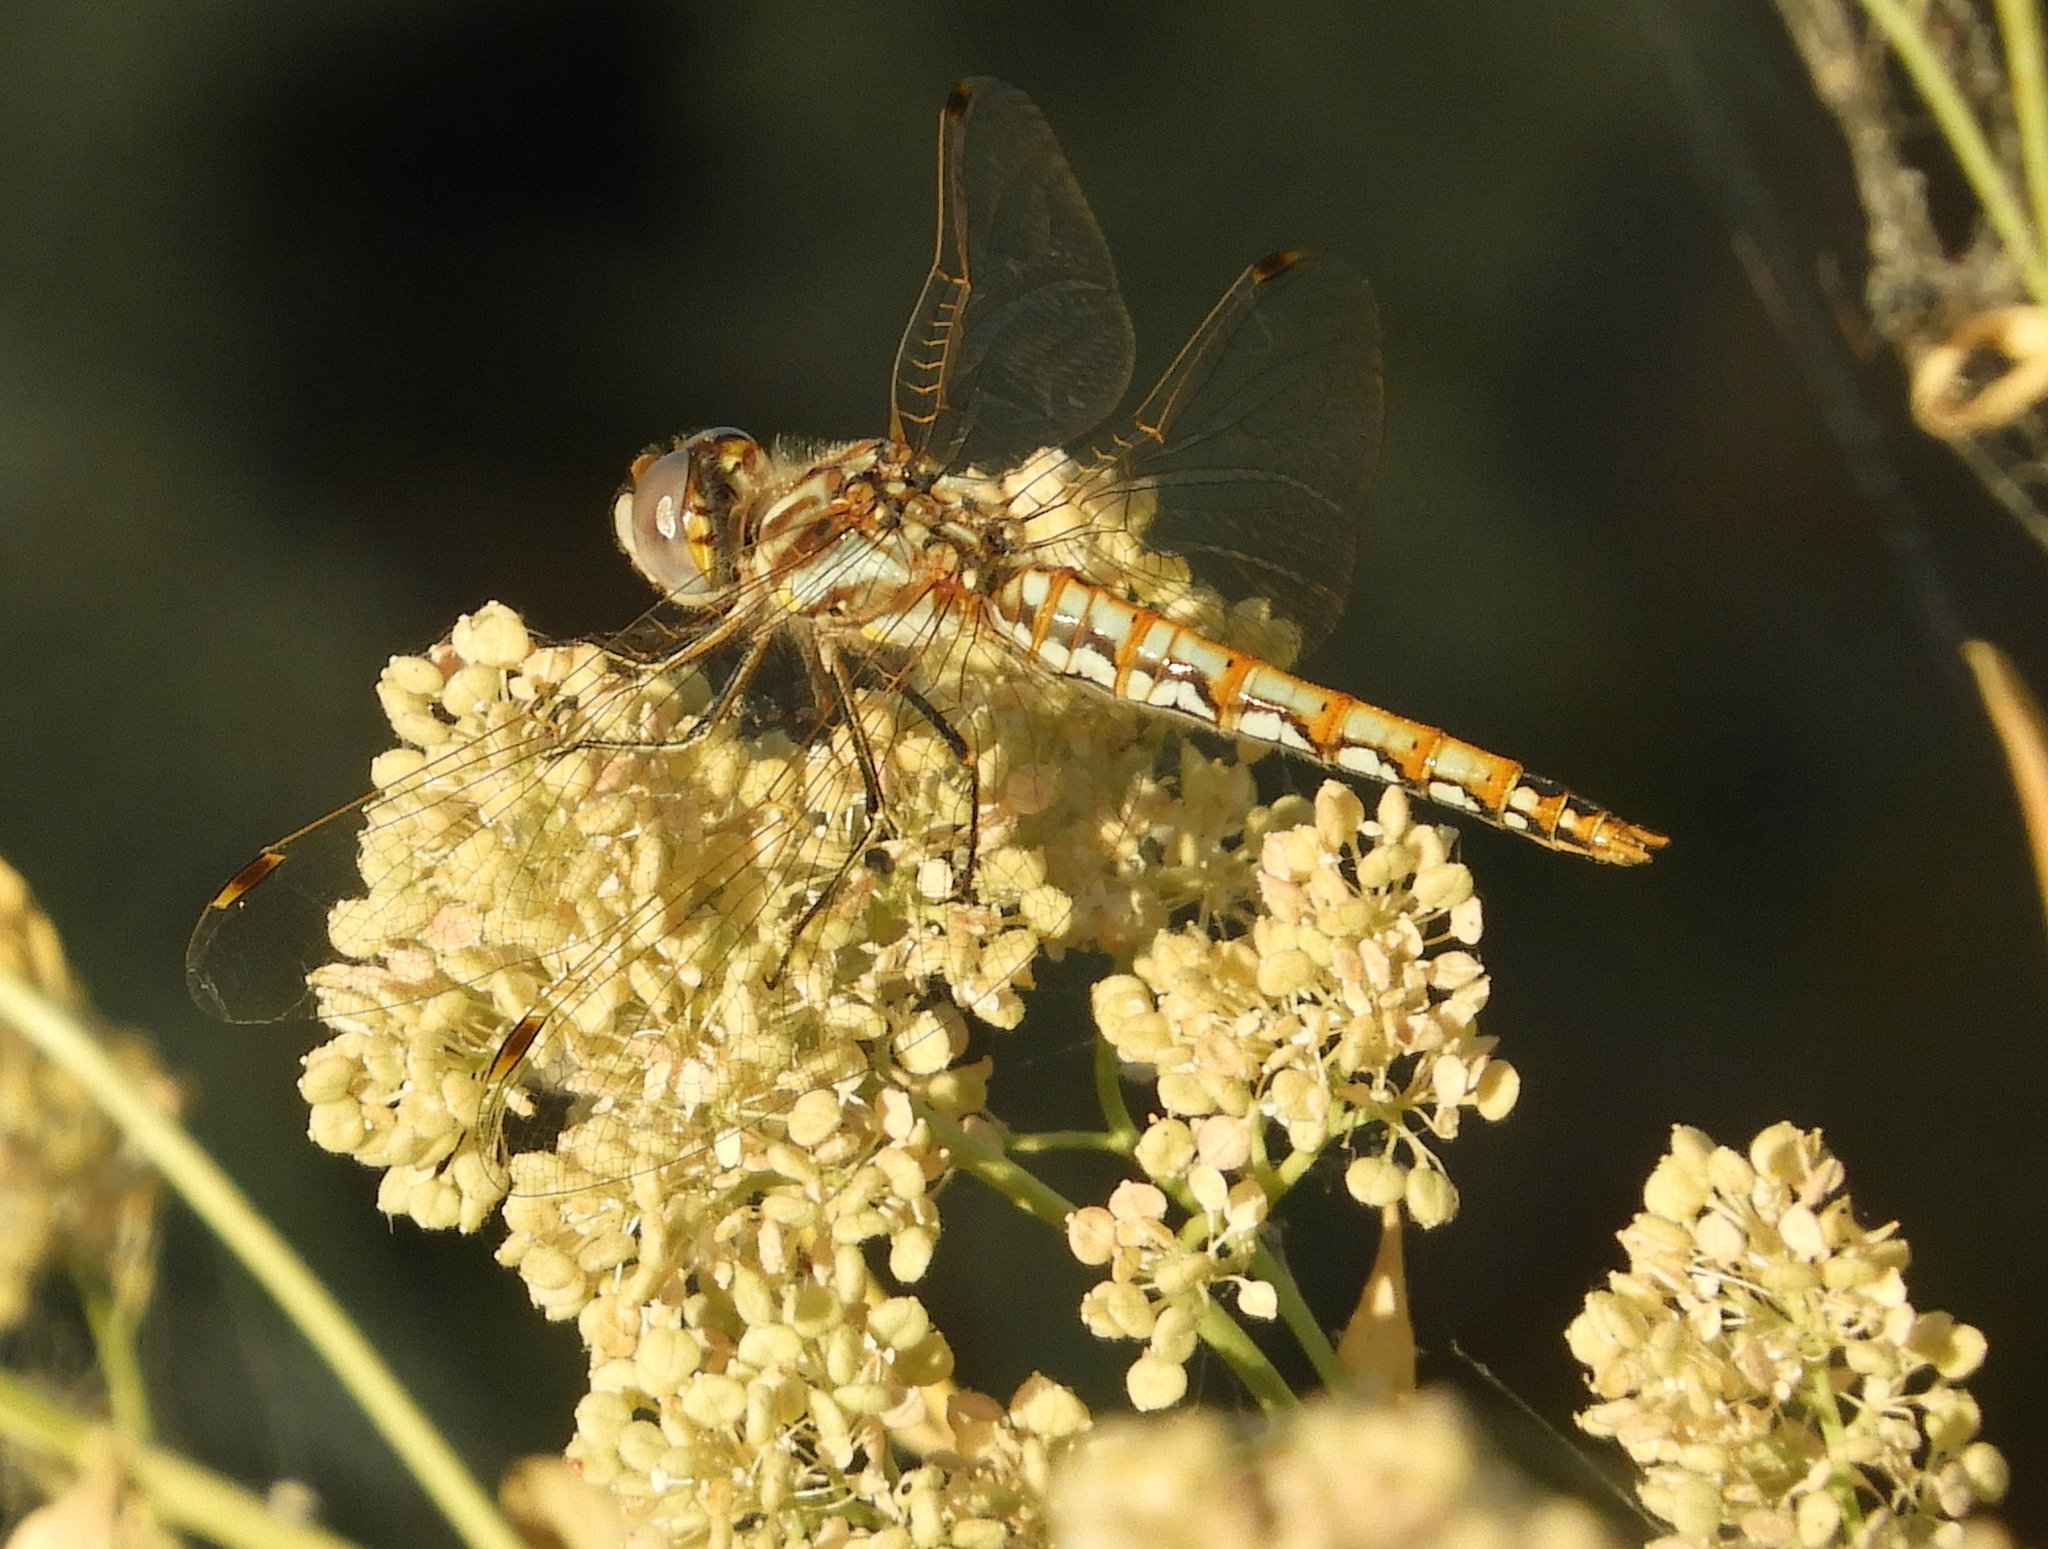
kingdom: Animalia
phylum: Arthropoda
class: Insecta
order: Odonata
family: Libellulidae
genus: Sympetrum
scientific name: Sympetrum corruptum
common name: Variegated meadowhawk
